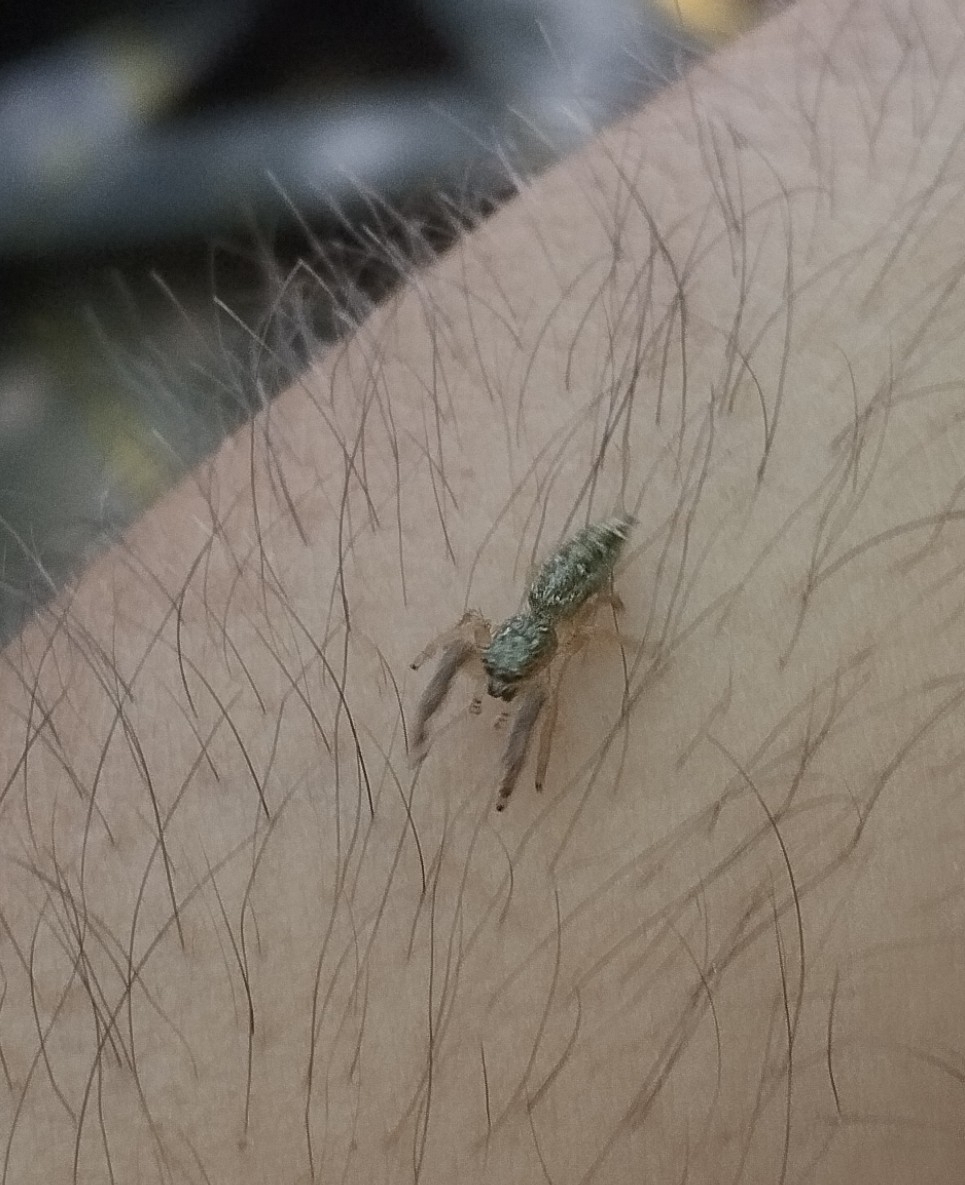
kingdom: Animalia
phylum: Arthropoda
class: Arachnida
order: Araneae
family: Salticidae
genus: Mendoza
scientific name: Mendoza canestrinii
